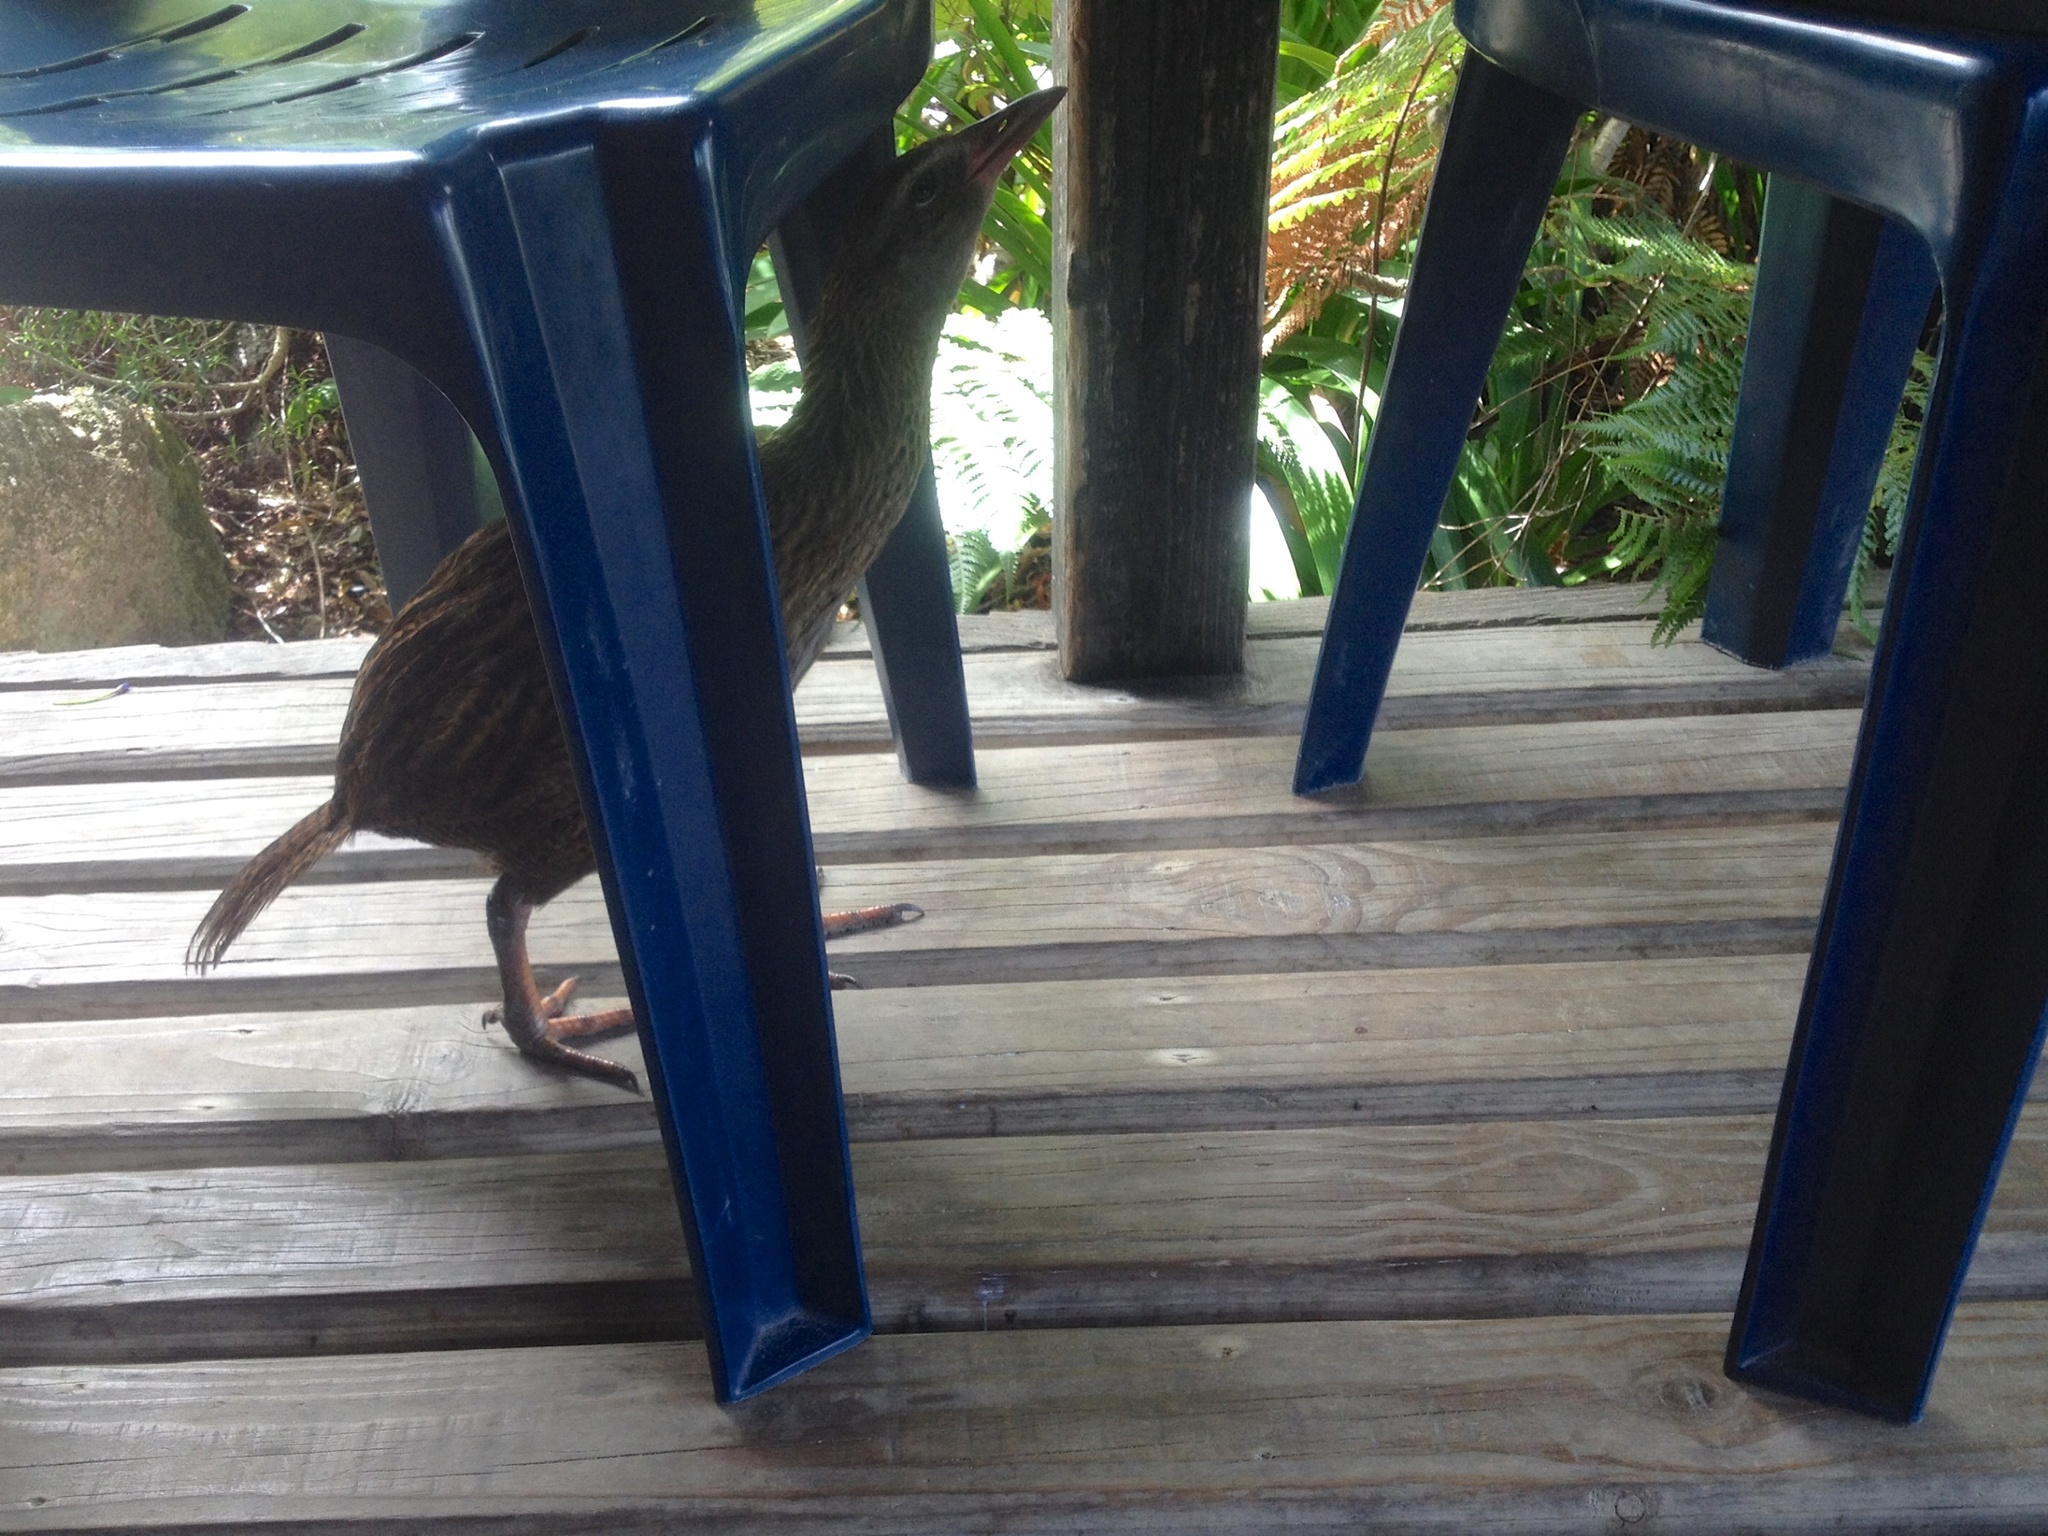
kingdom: Animalia
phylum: Chordata
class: Aves
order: Gruiformes
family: Rallidae
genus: Gallirallus
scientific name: Gallirallus australis
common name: Weka
